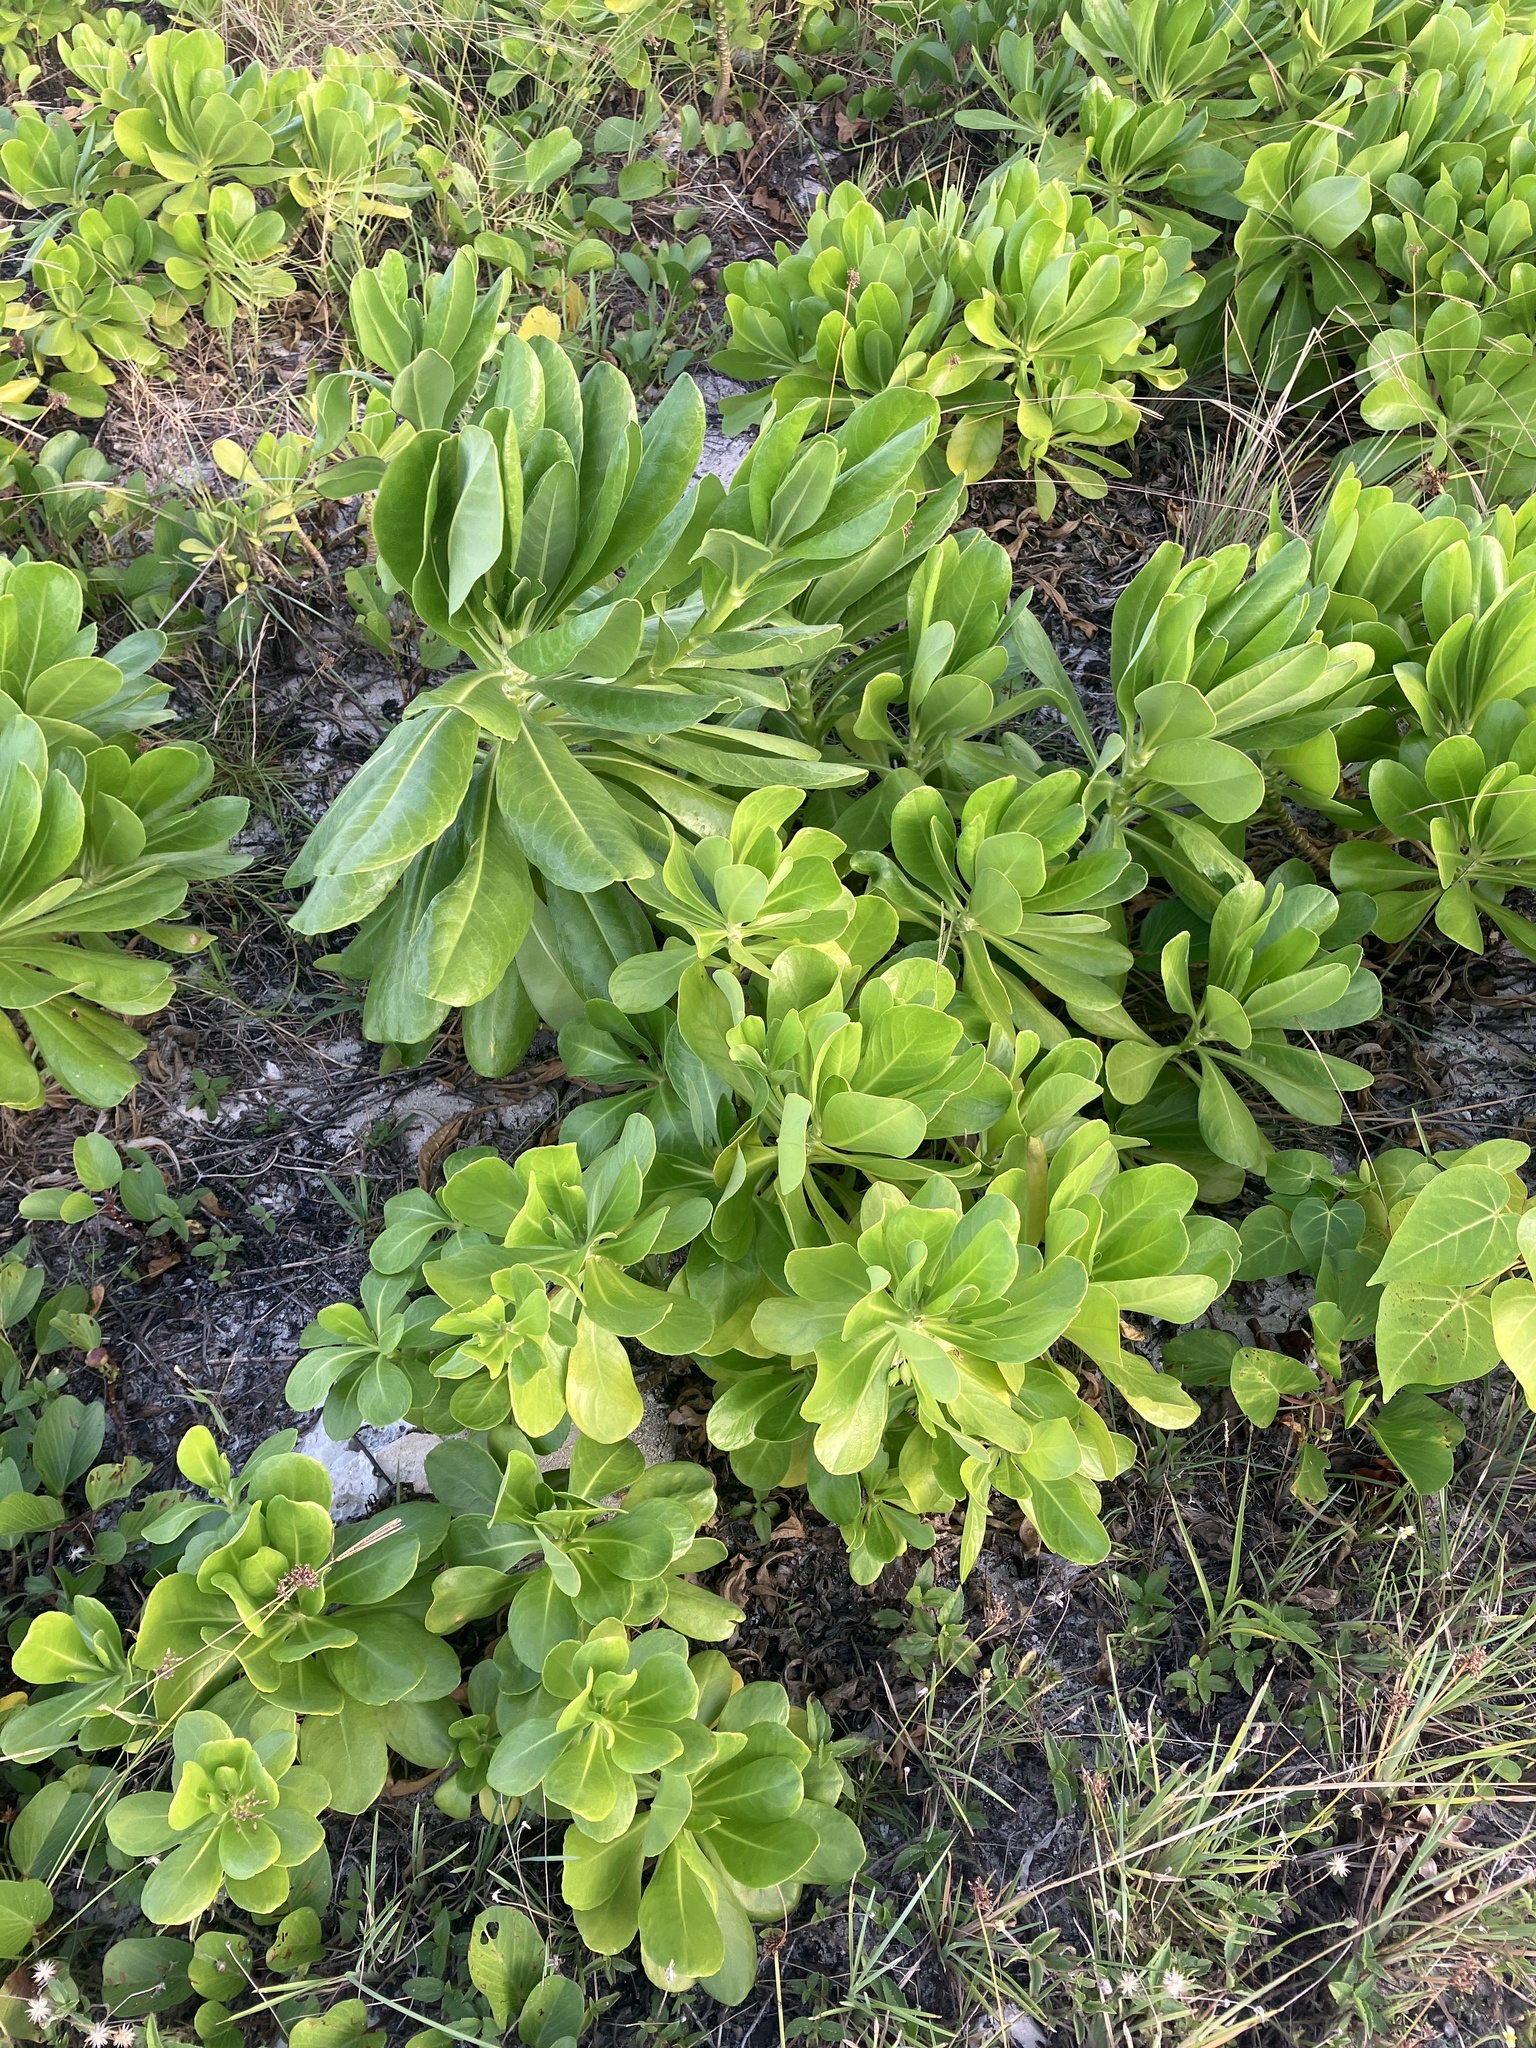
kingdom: Plantae
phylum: Tracheophyta
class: Magnoliopsida
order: Asterales
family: Goodeniaceae
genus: Scaevola
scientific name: Scaevola taccada
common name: Sea lettucetree
